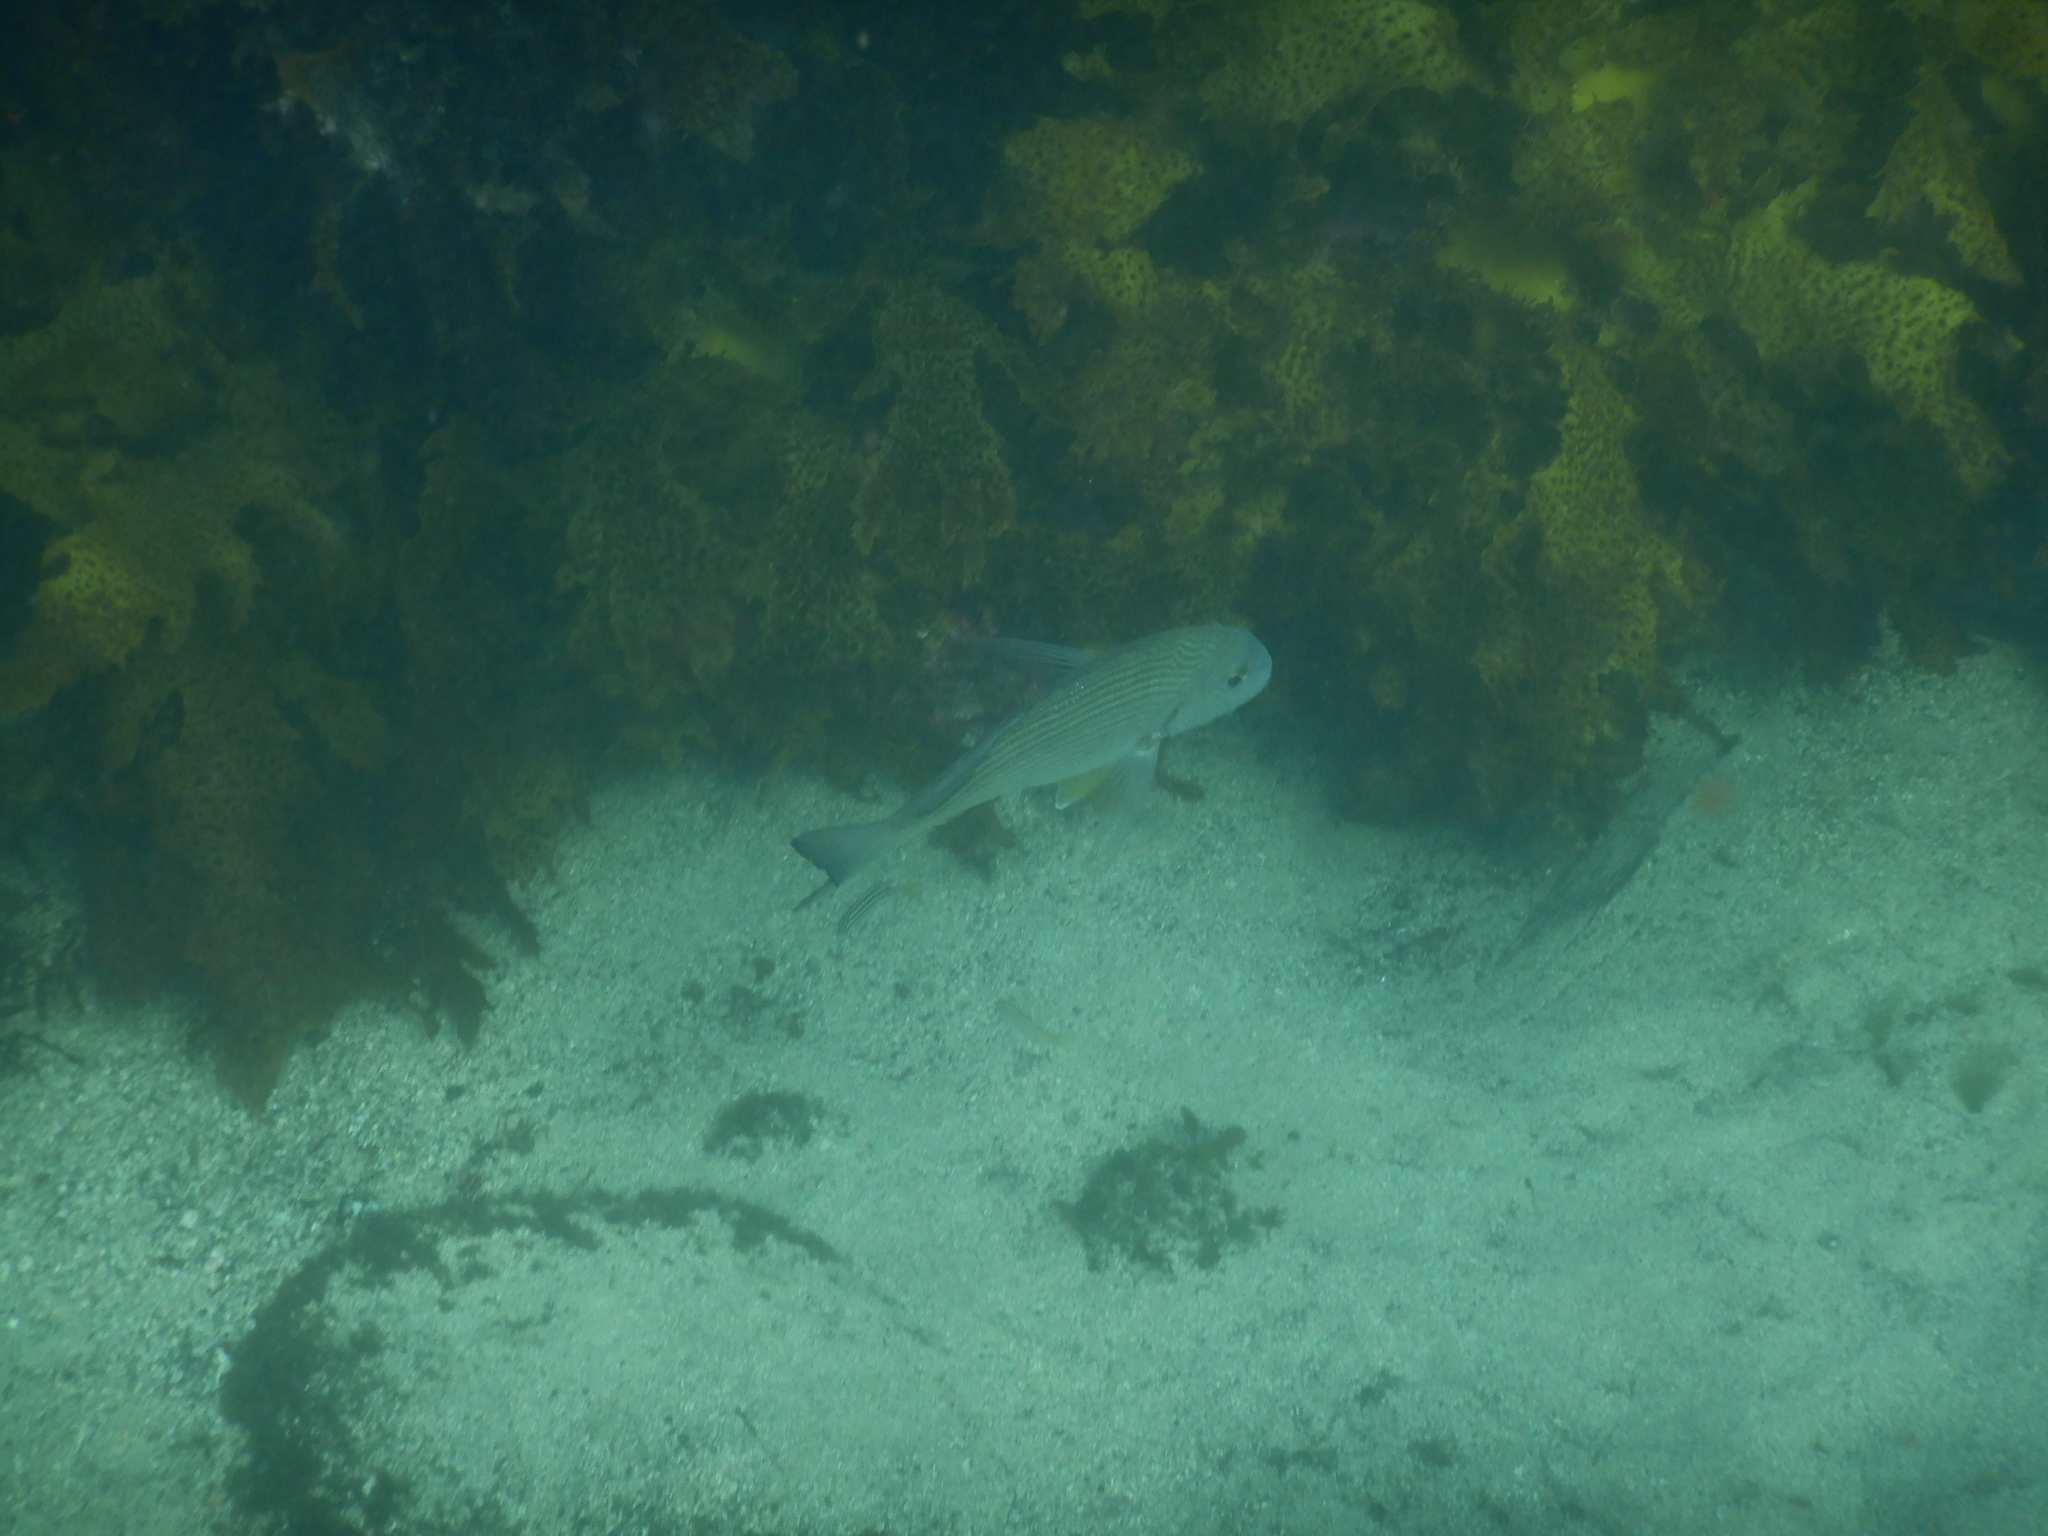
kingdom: Animalia
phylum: Chordata
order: Perciformes
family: Sparidae
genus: Rhabdosargus
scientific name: Rhabdosargus sarba
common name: Goldlined seabream
